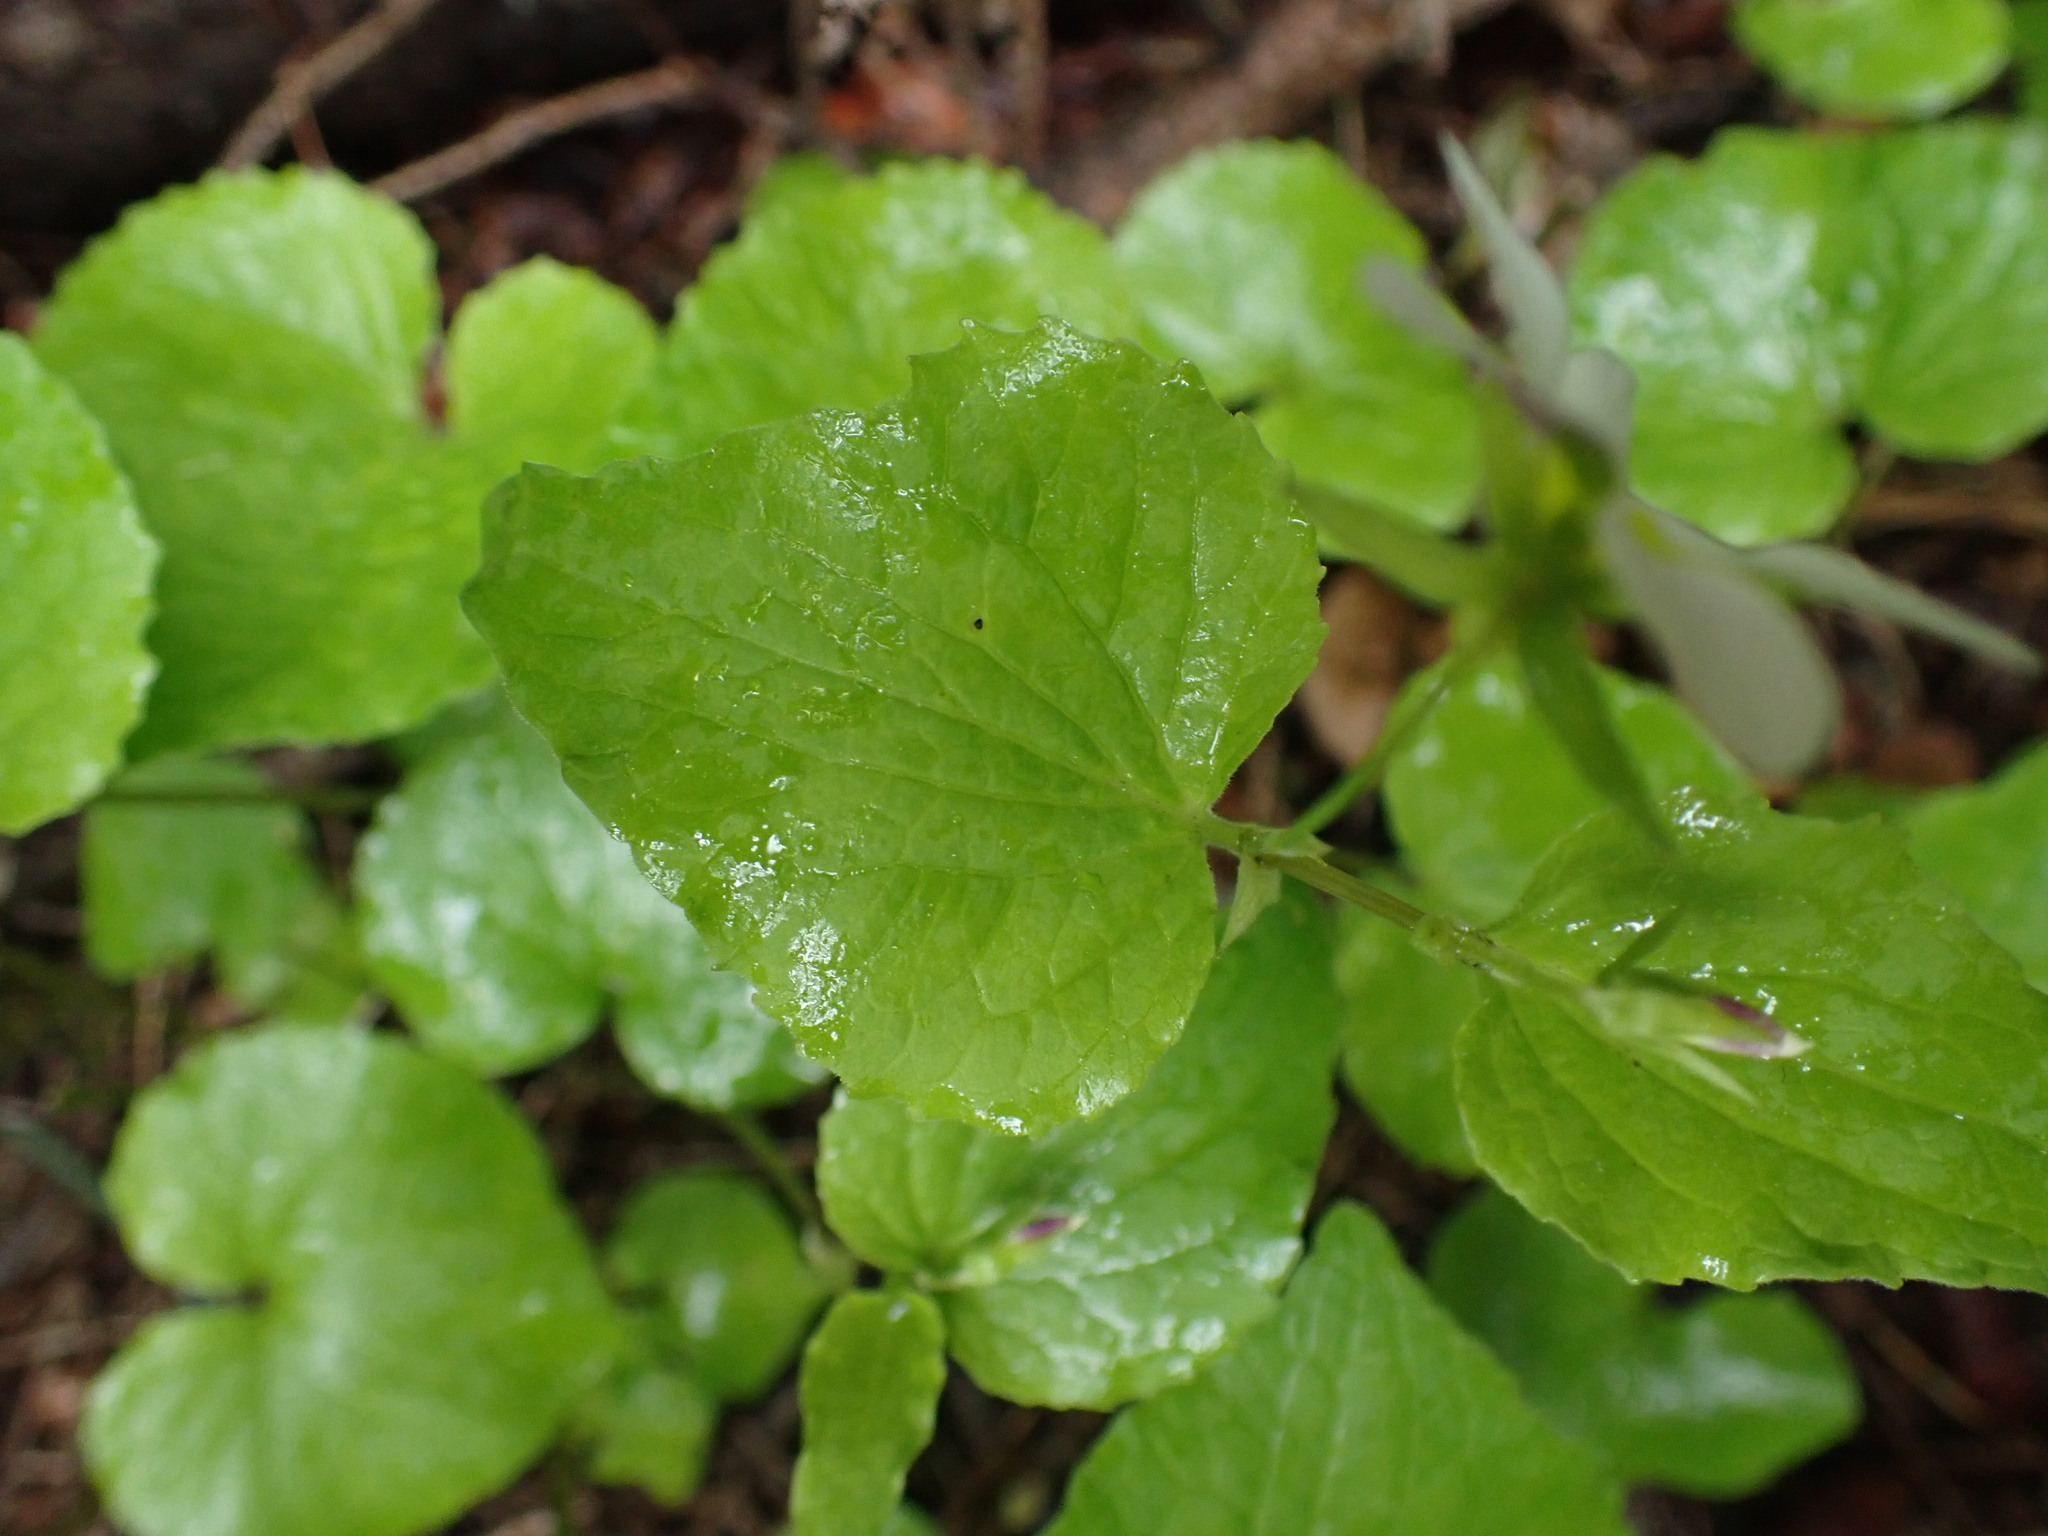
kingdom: Plantae
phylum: Tracheophyta
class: Magnoliopsida
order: Malpighiales
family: Violaceae
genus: Viola
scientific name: Viola canadensis
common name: Canada violet
